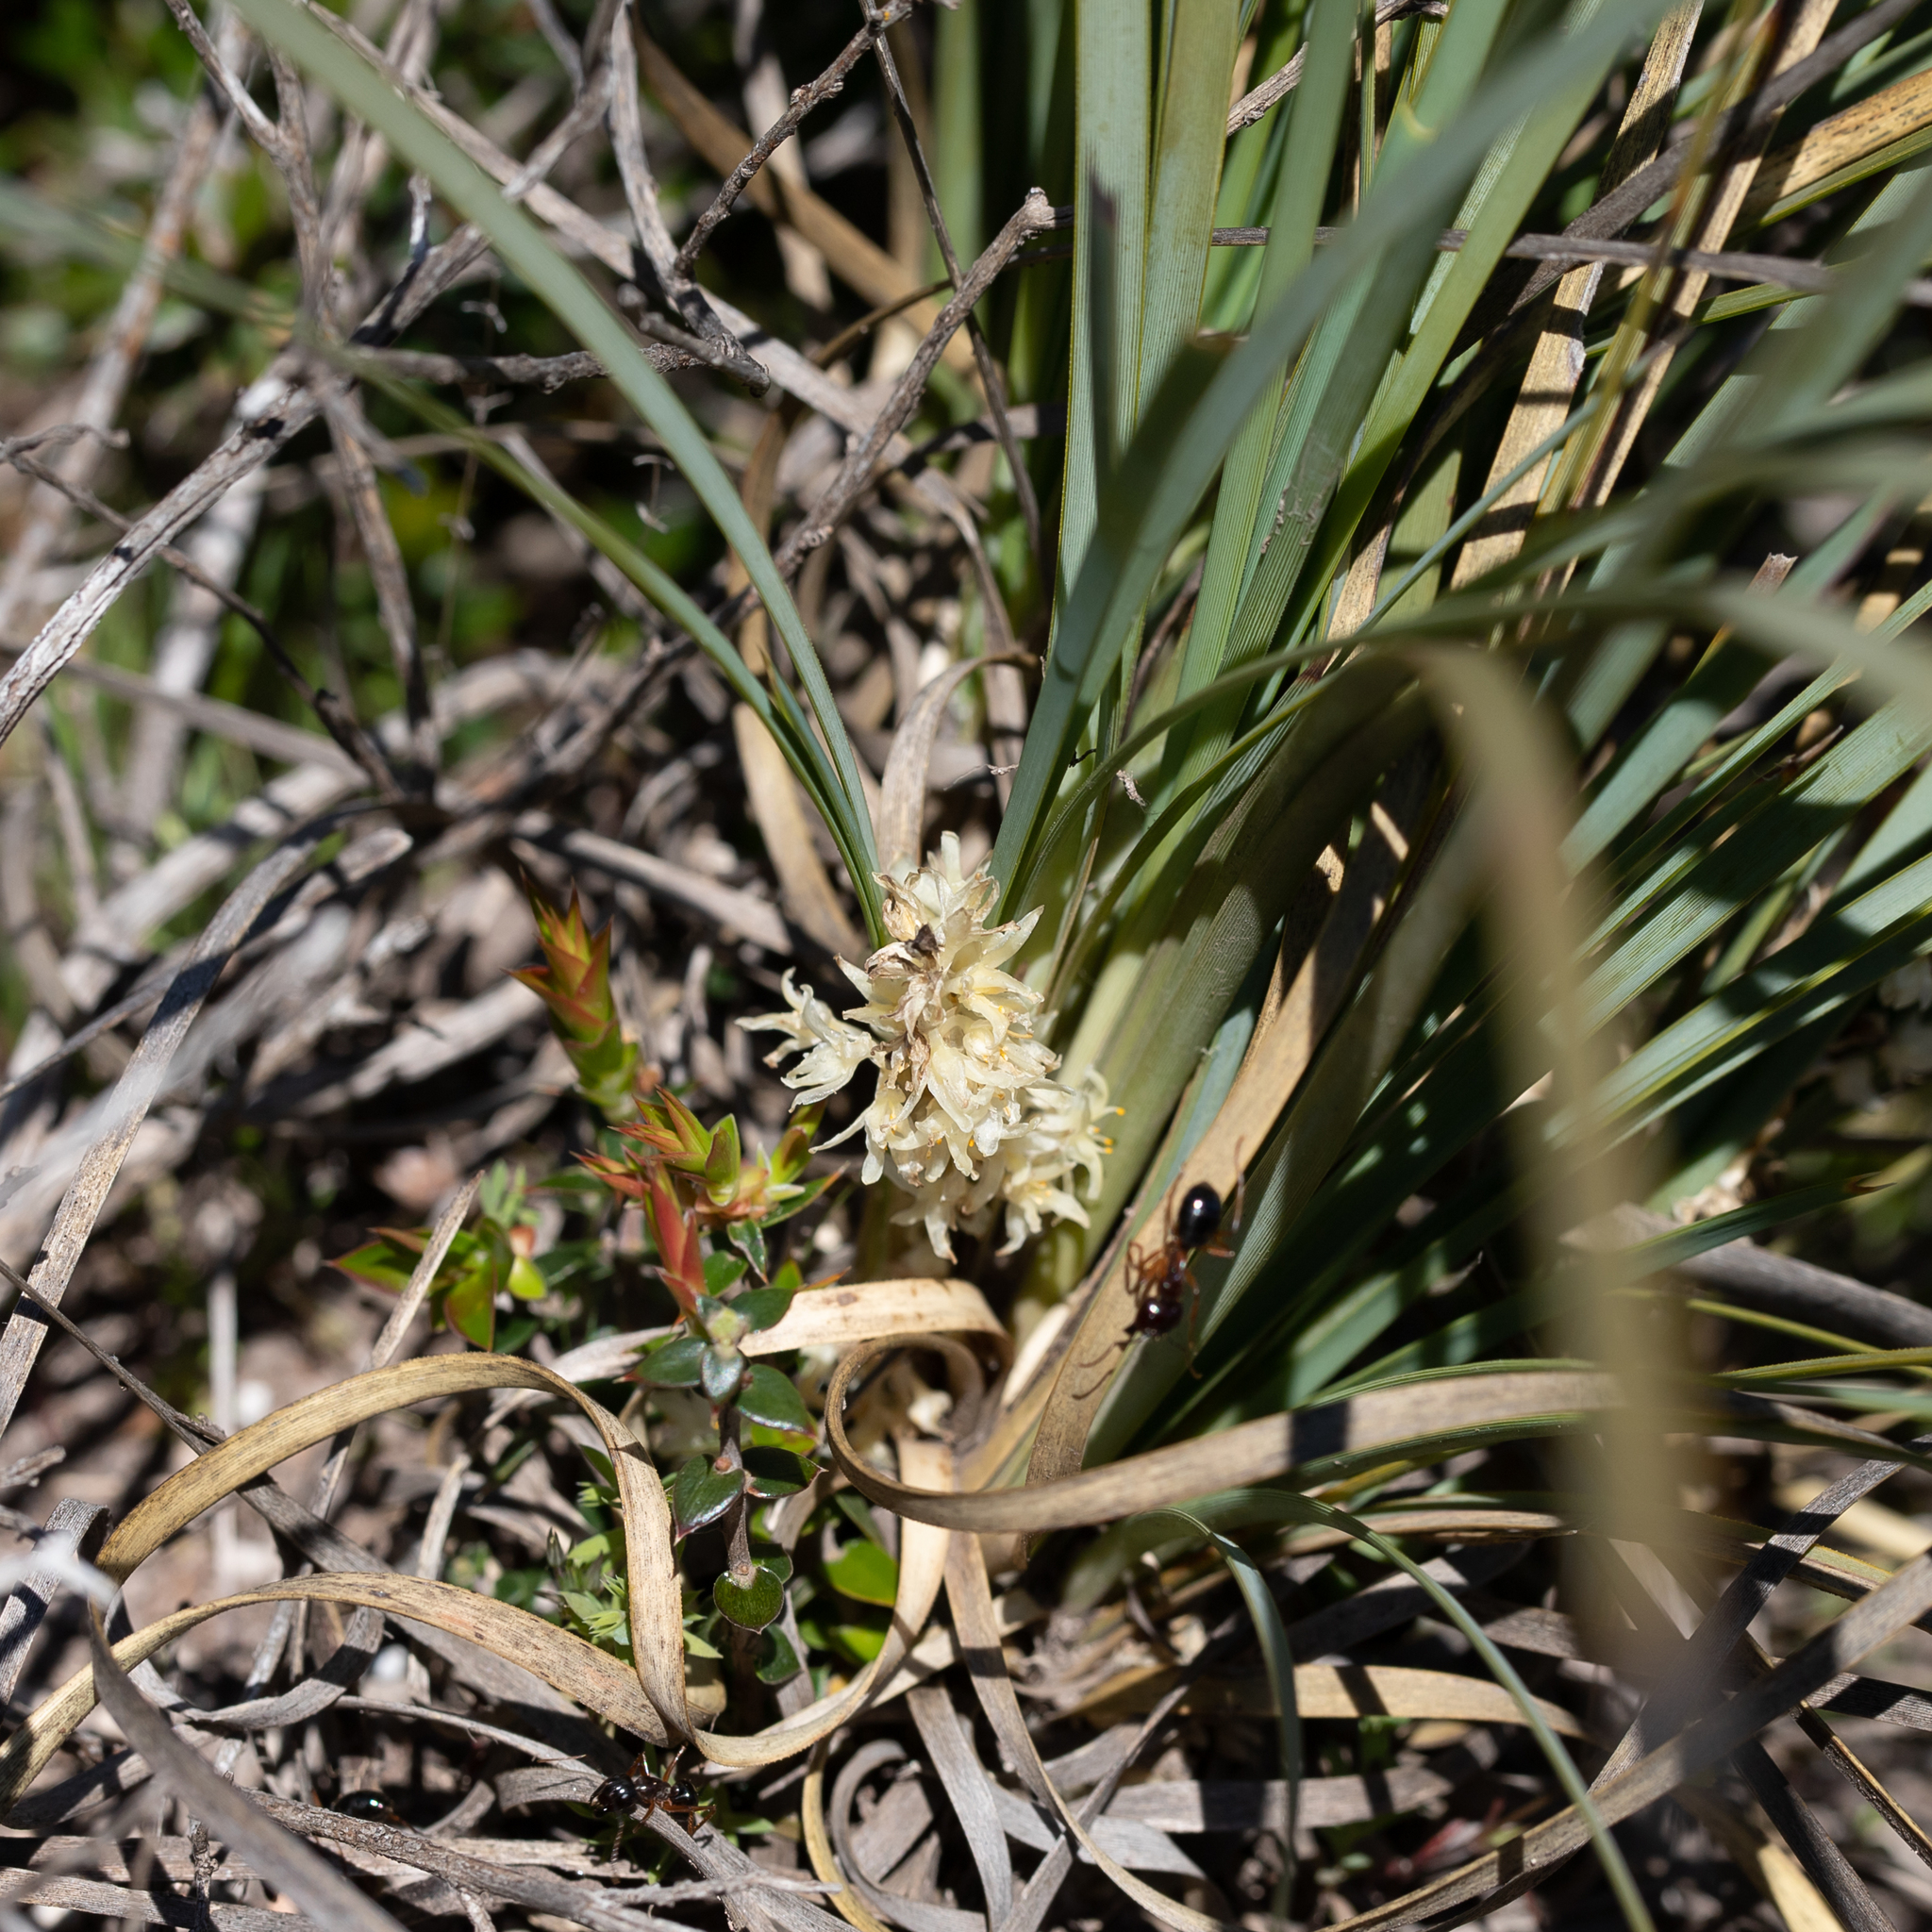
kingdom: Plantae
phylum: Tracheophyta
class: Liliopsida
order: Asparagales
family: Asparagaceae
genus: Lomandra
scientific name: Lomandra effusa
